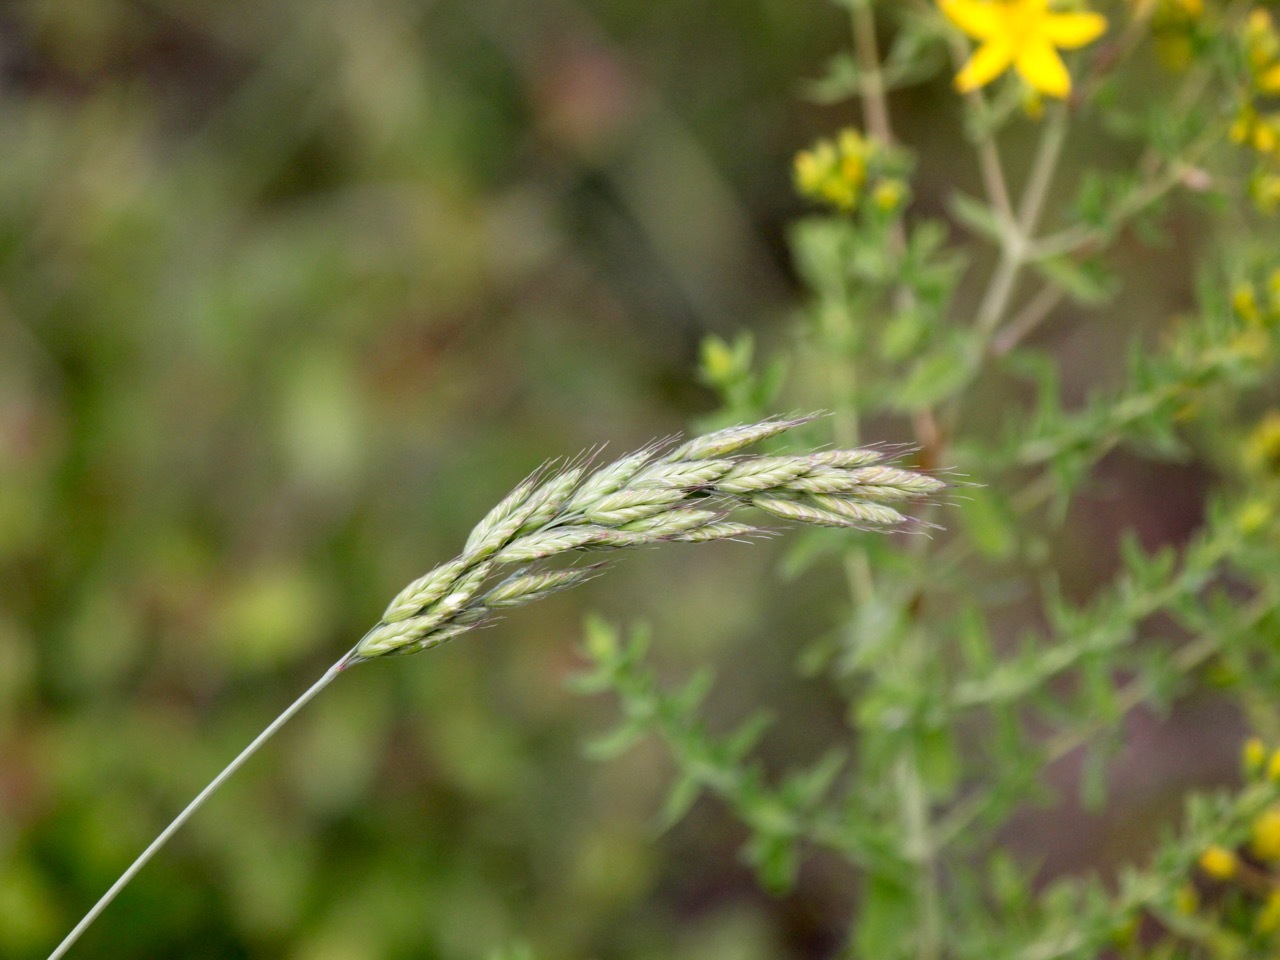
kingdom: Plantae
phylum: Tracheophyta
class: Liliopsida
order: Poales
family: Poaceae
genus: Bromus
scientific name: Bromus hordeaceus
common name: Soft brome
